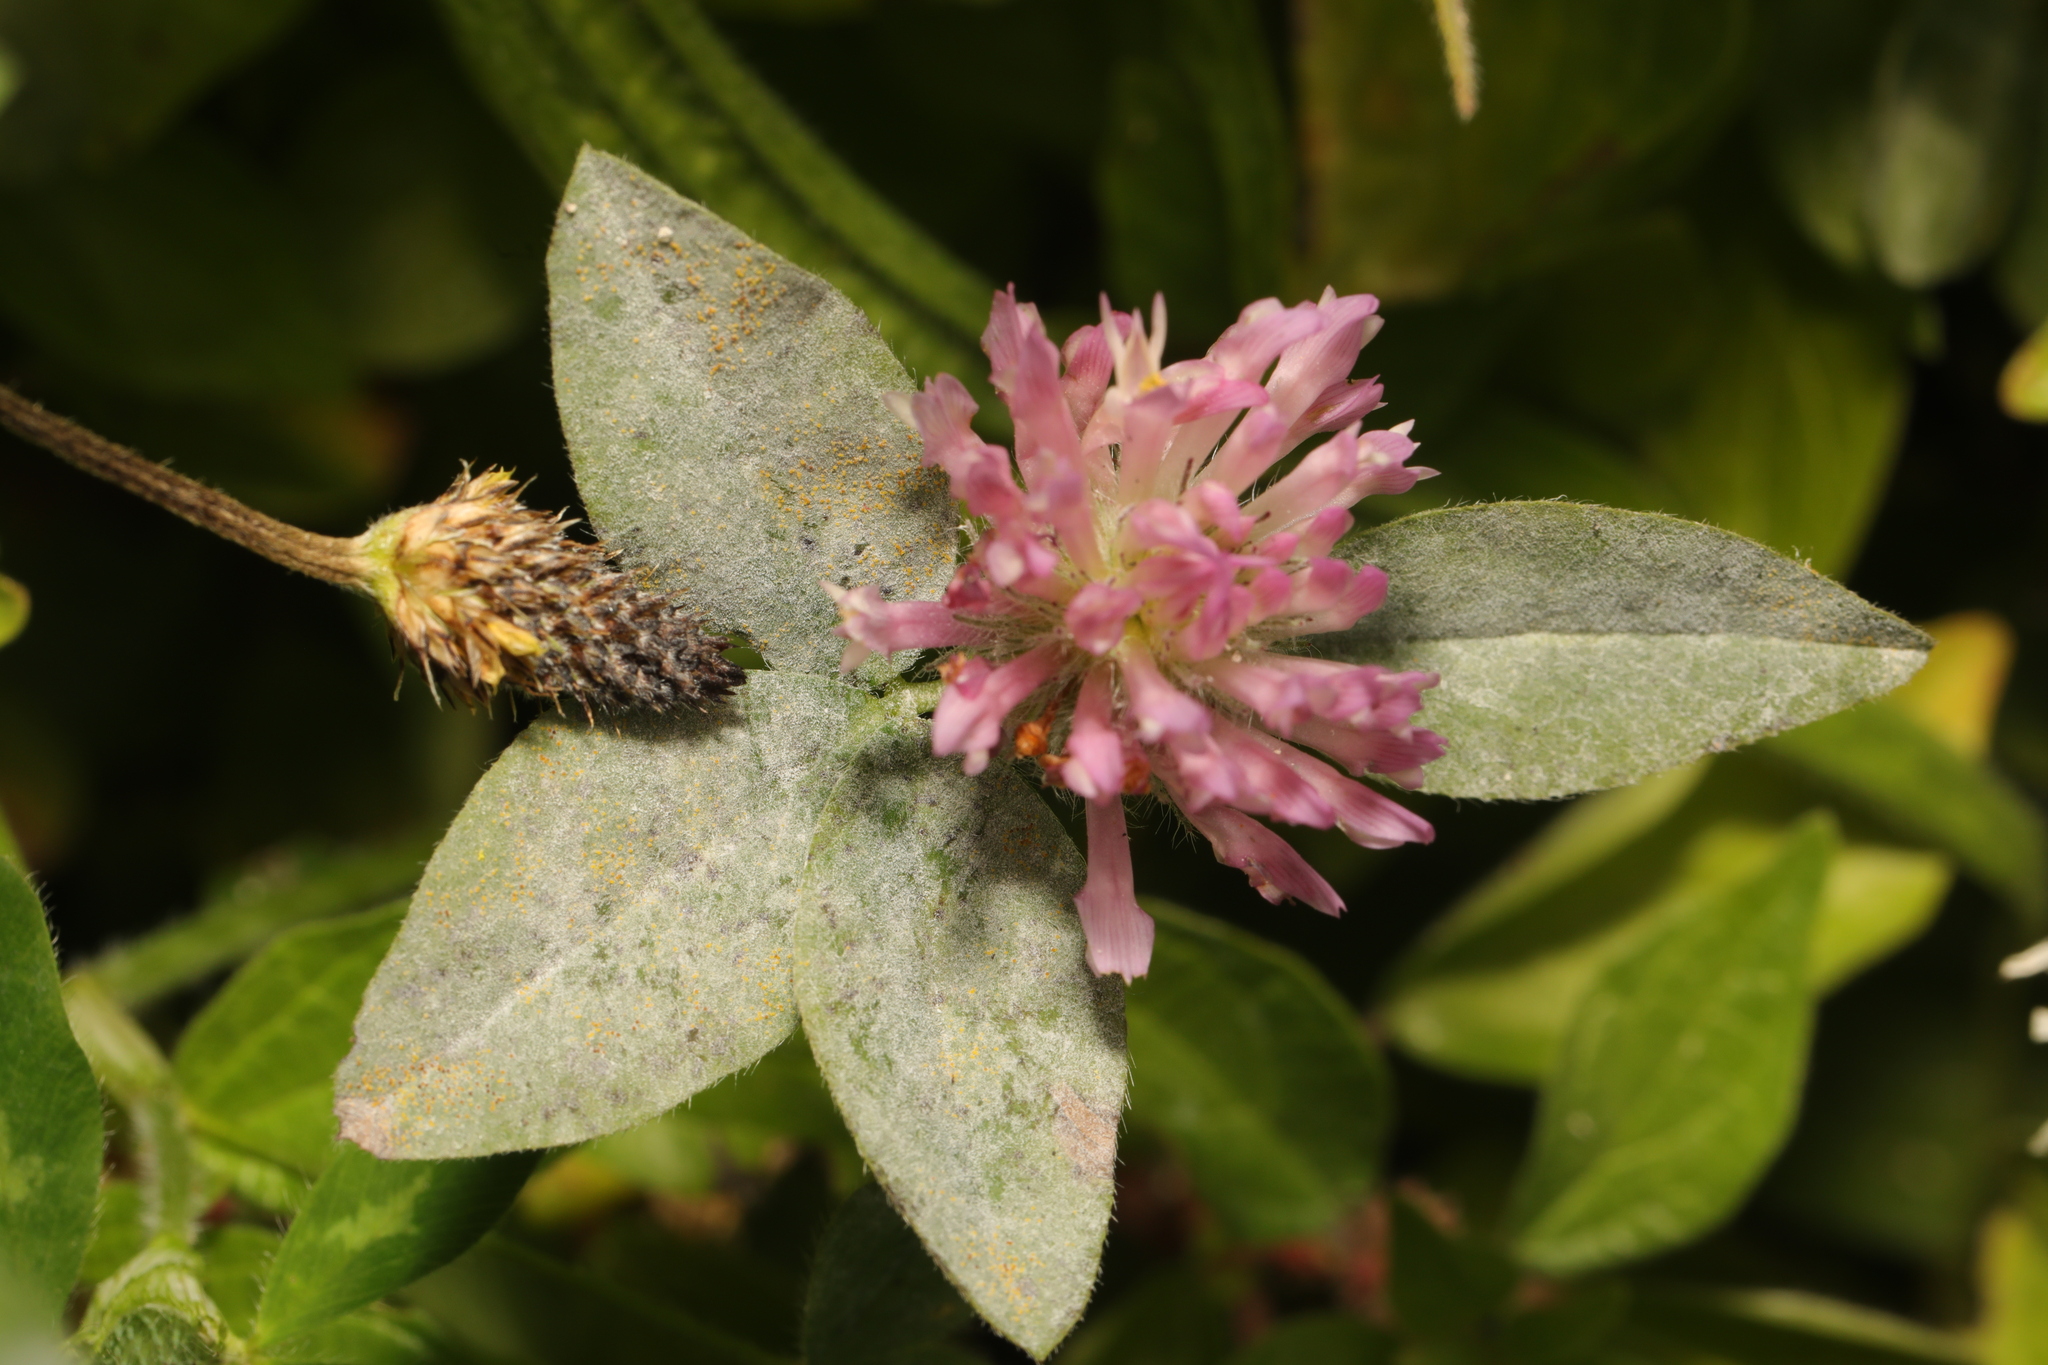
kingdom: Plantae
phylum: Tracheophyta
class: Magnoliopsida
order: Fabales
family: Fabaceae
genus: Trifolium
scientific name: Trifolium pratense
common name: Red clover
